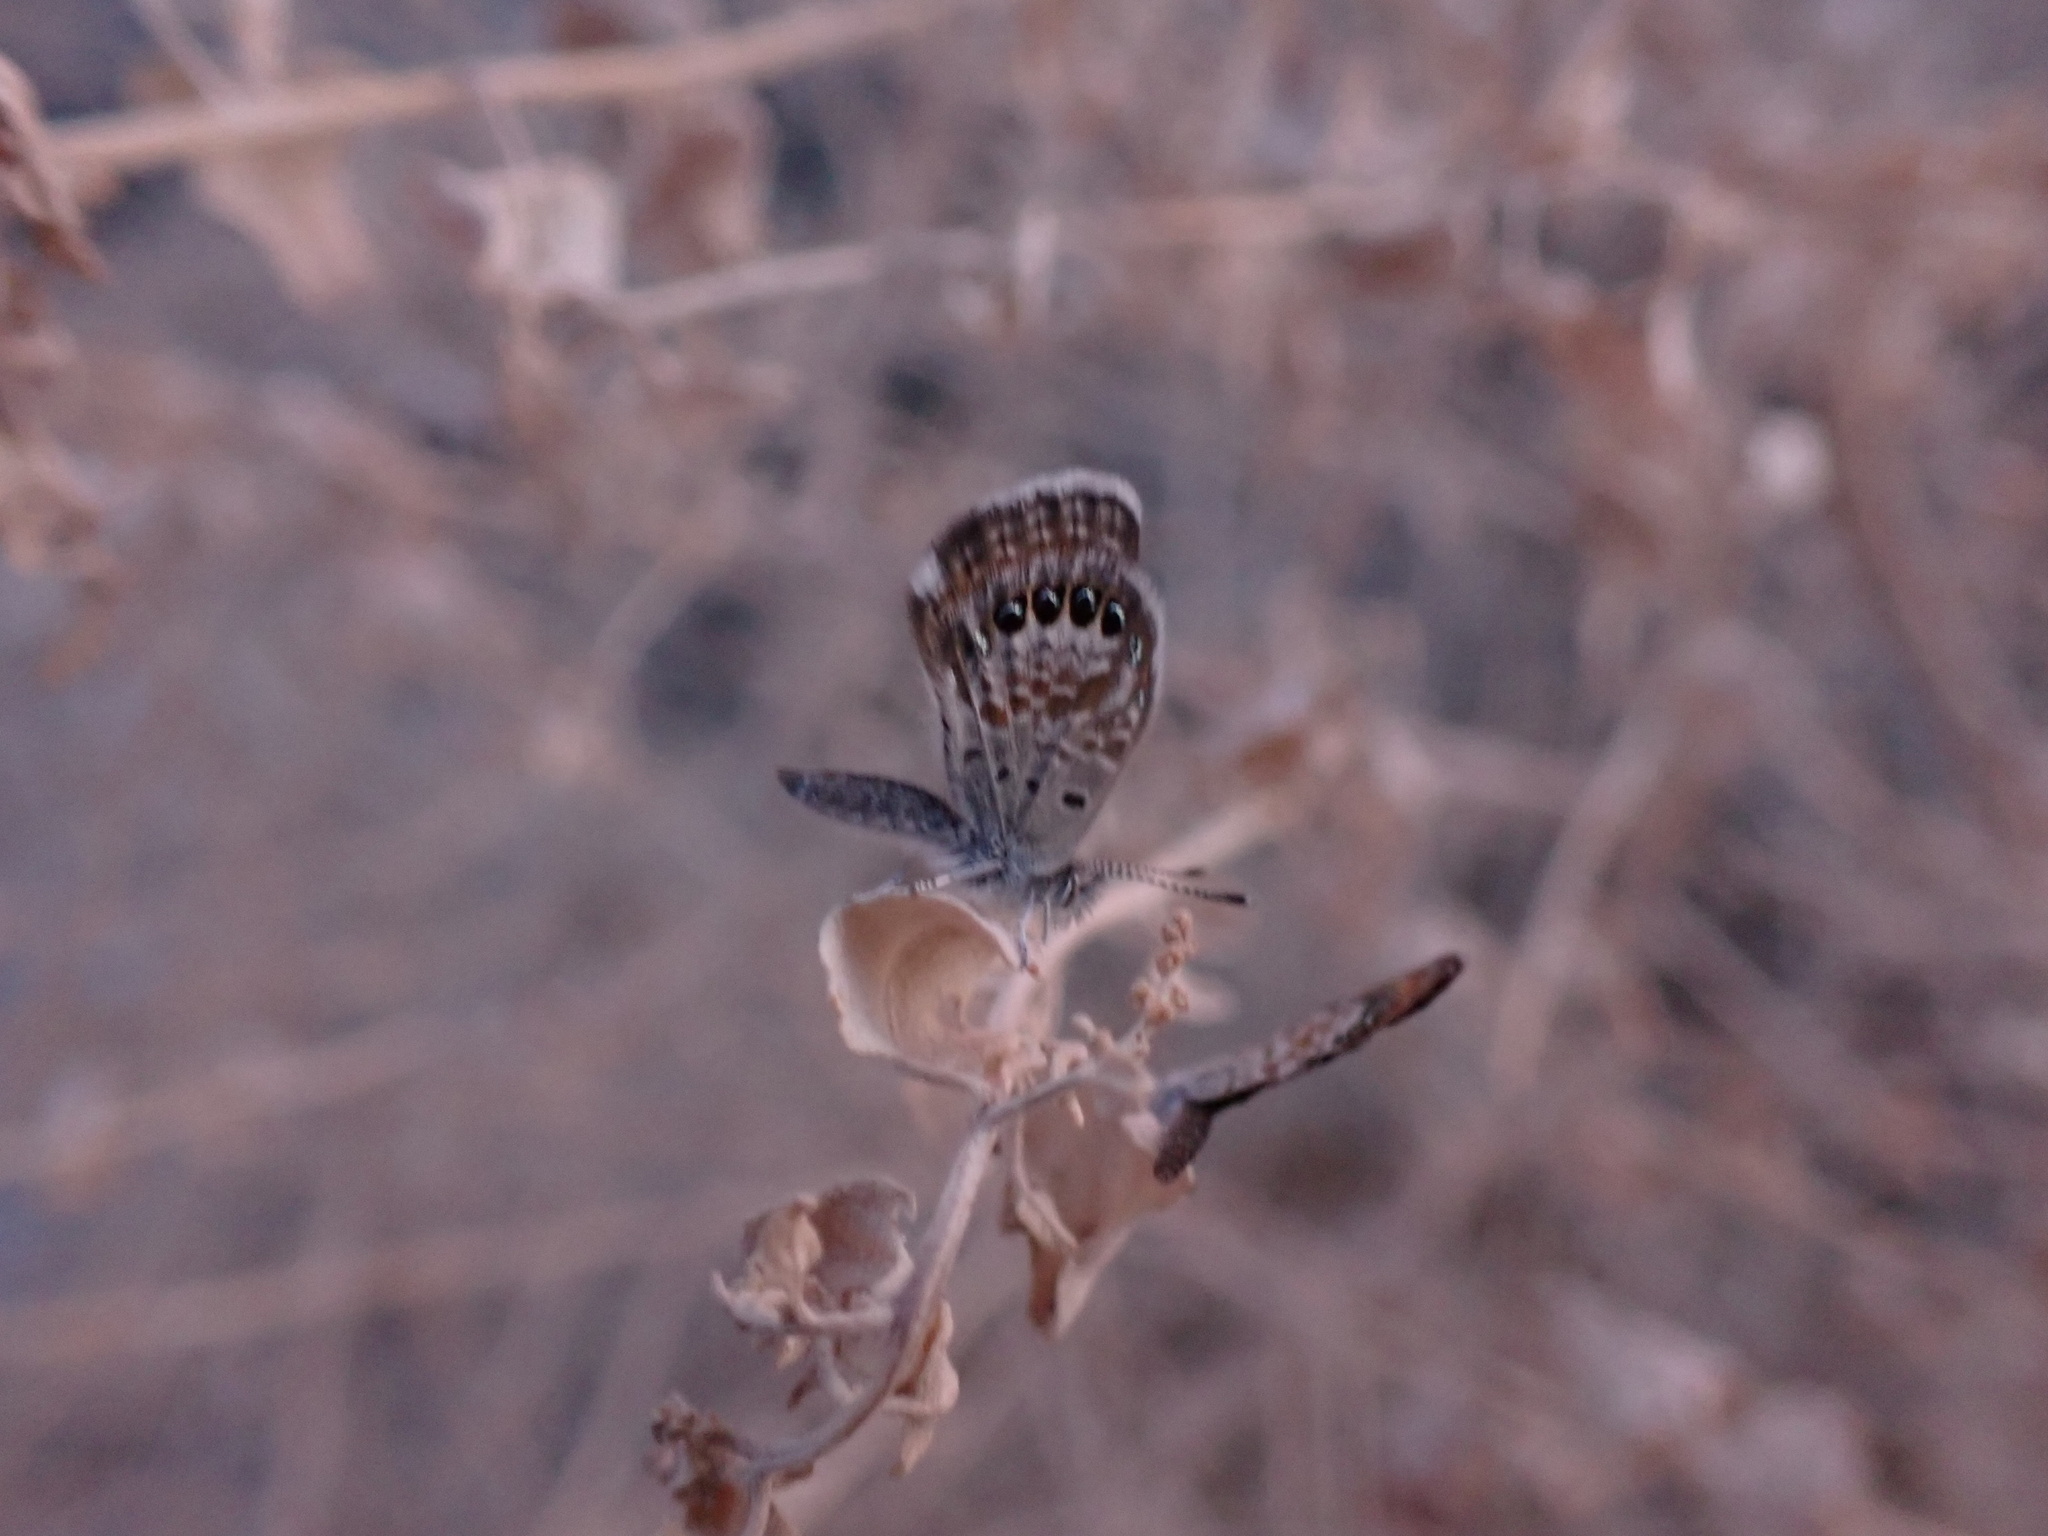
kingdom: Animalia
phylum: Arthropoda
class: Insecta
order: Lepidoptera
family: Lycaenidae
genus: Brephidium
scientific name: Brephidium exilis
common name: Pygmy blue
